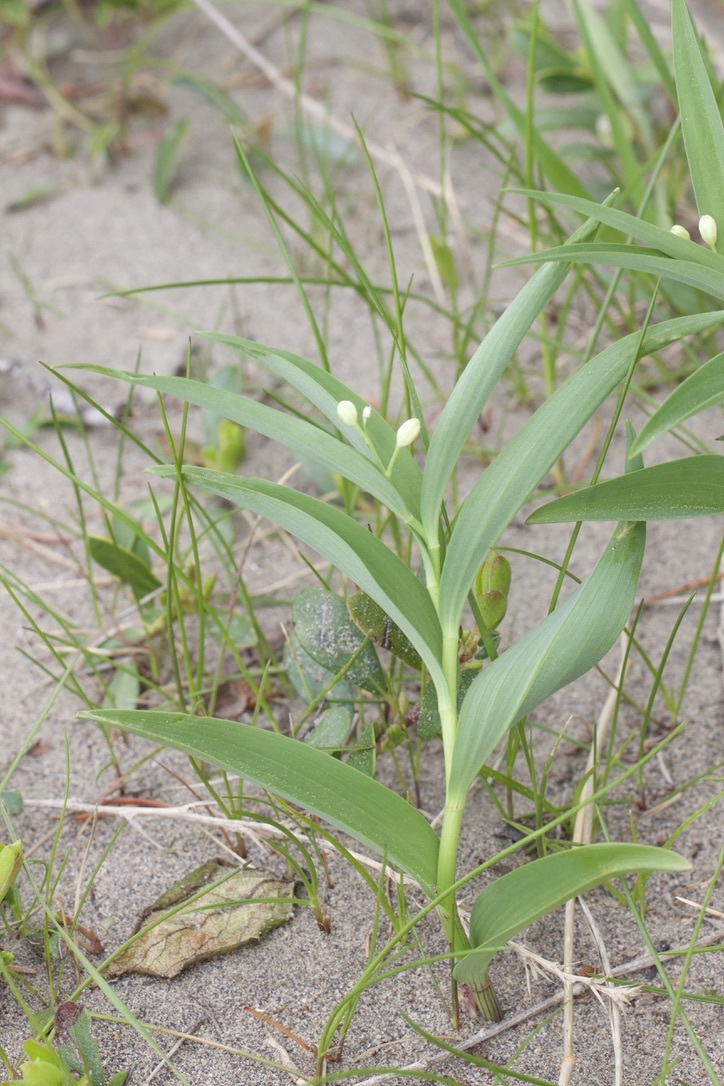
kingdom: Plantae
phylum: Tracheophyta
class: Liliopsida
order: Asparagales
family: Asparagaceae
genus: Maianthemum
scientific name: Maianthemum stellatum
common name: Little false solomon's seal
